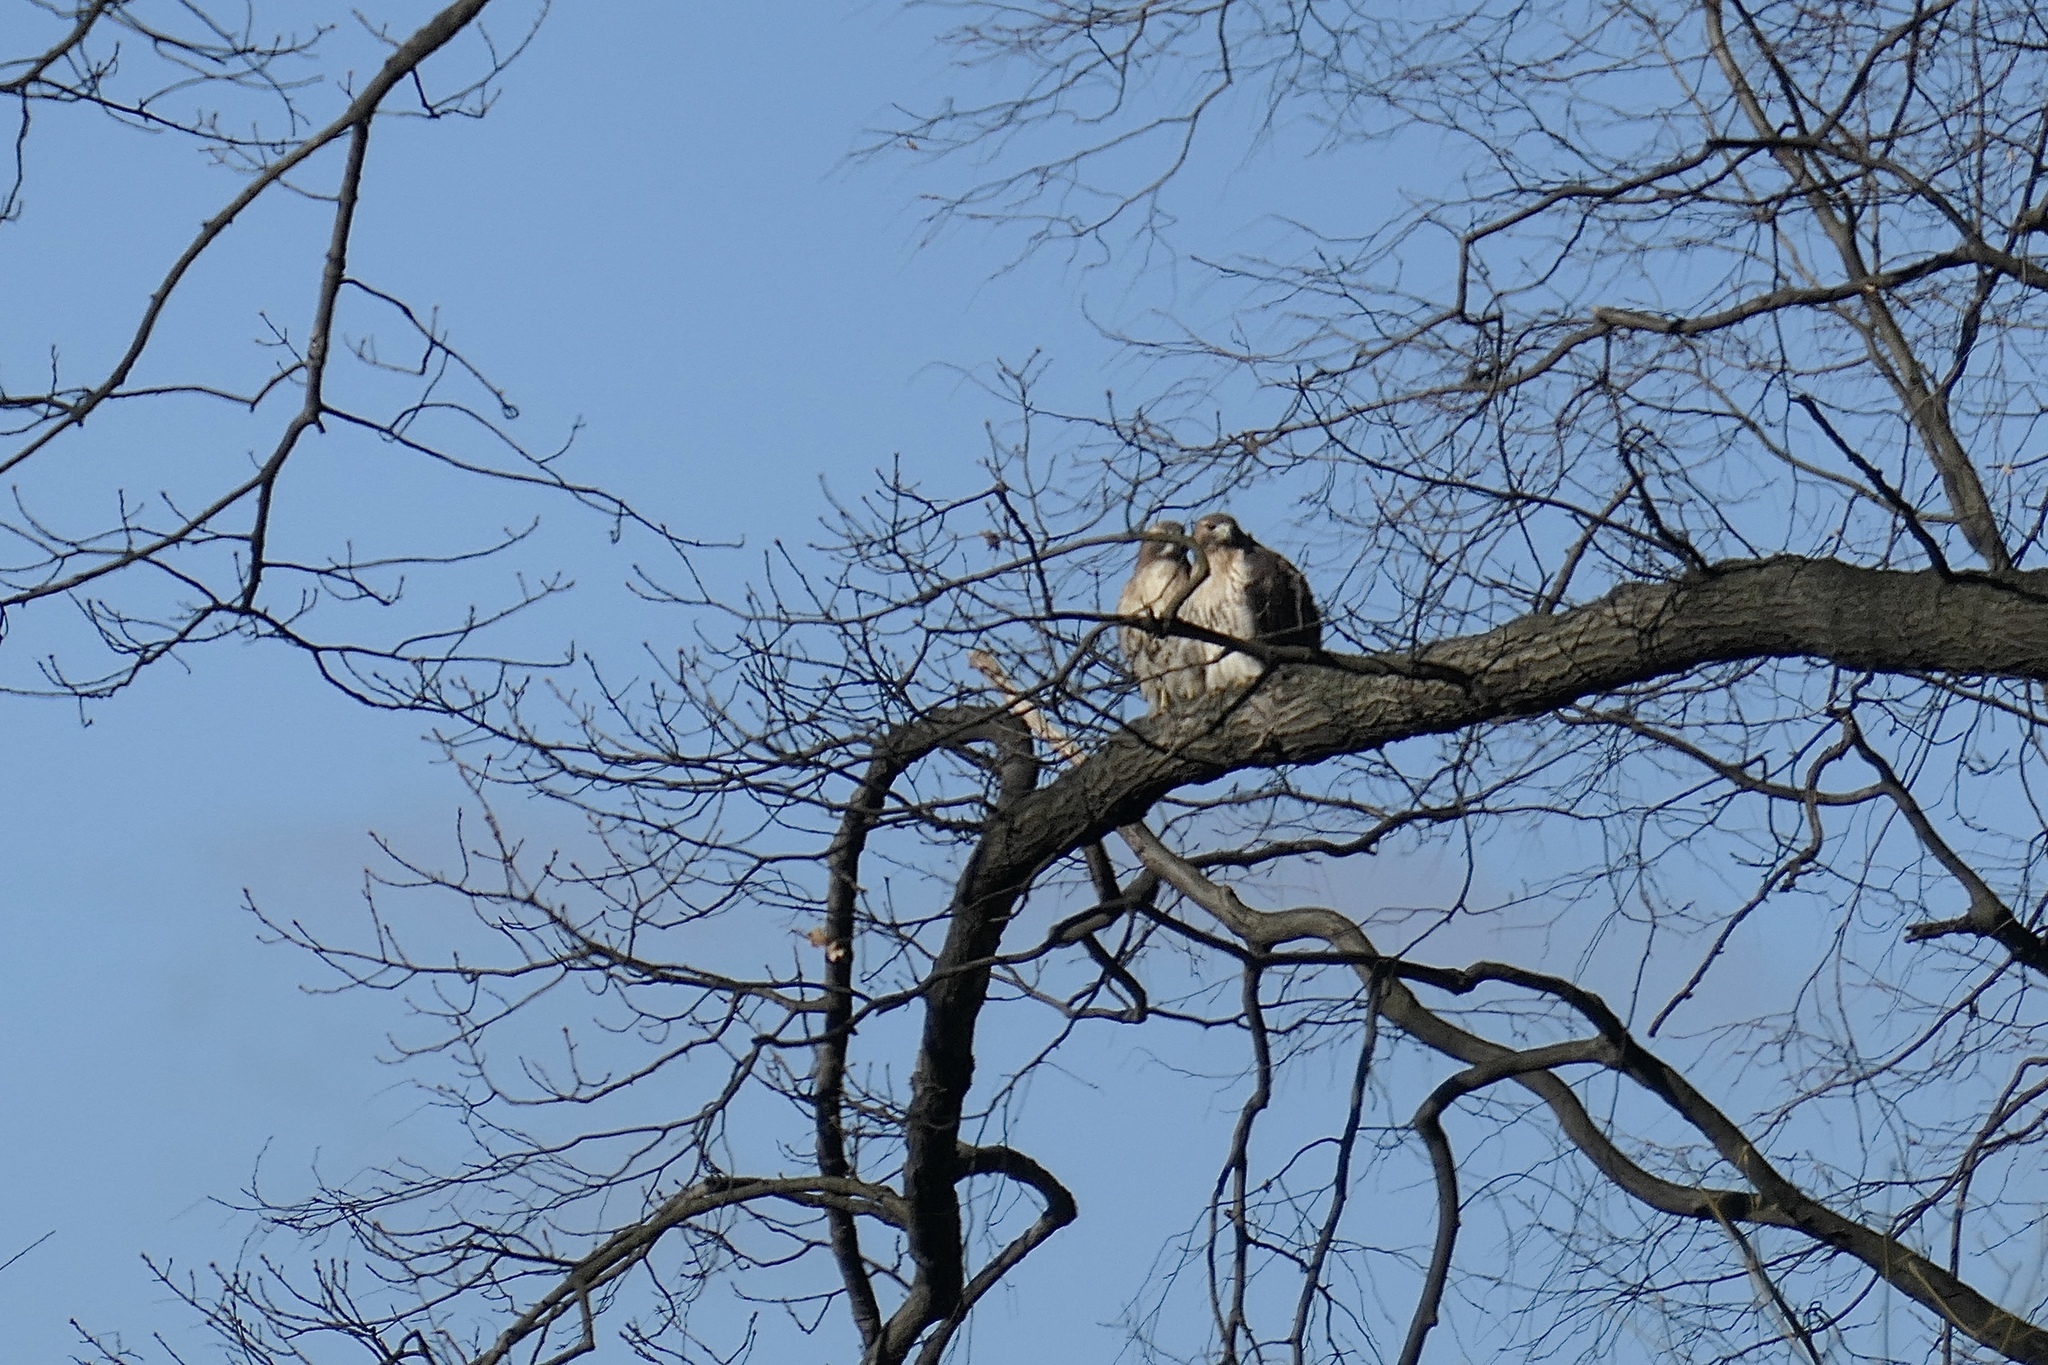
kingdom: Animalia
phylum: Chordata
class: Aves
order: Accipitriformes
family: Accipitridae
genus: Buteo
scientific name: Buteo jamaicensis
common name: Red-tailed hawk
